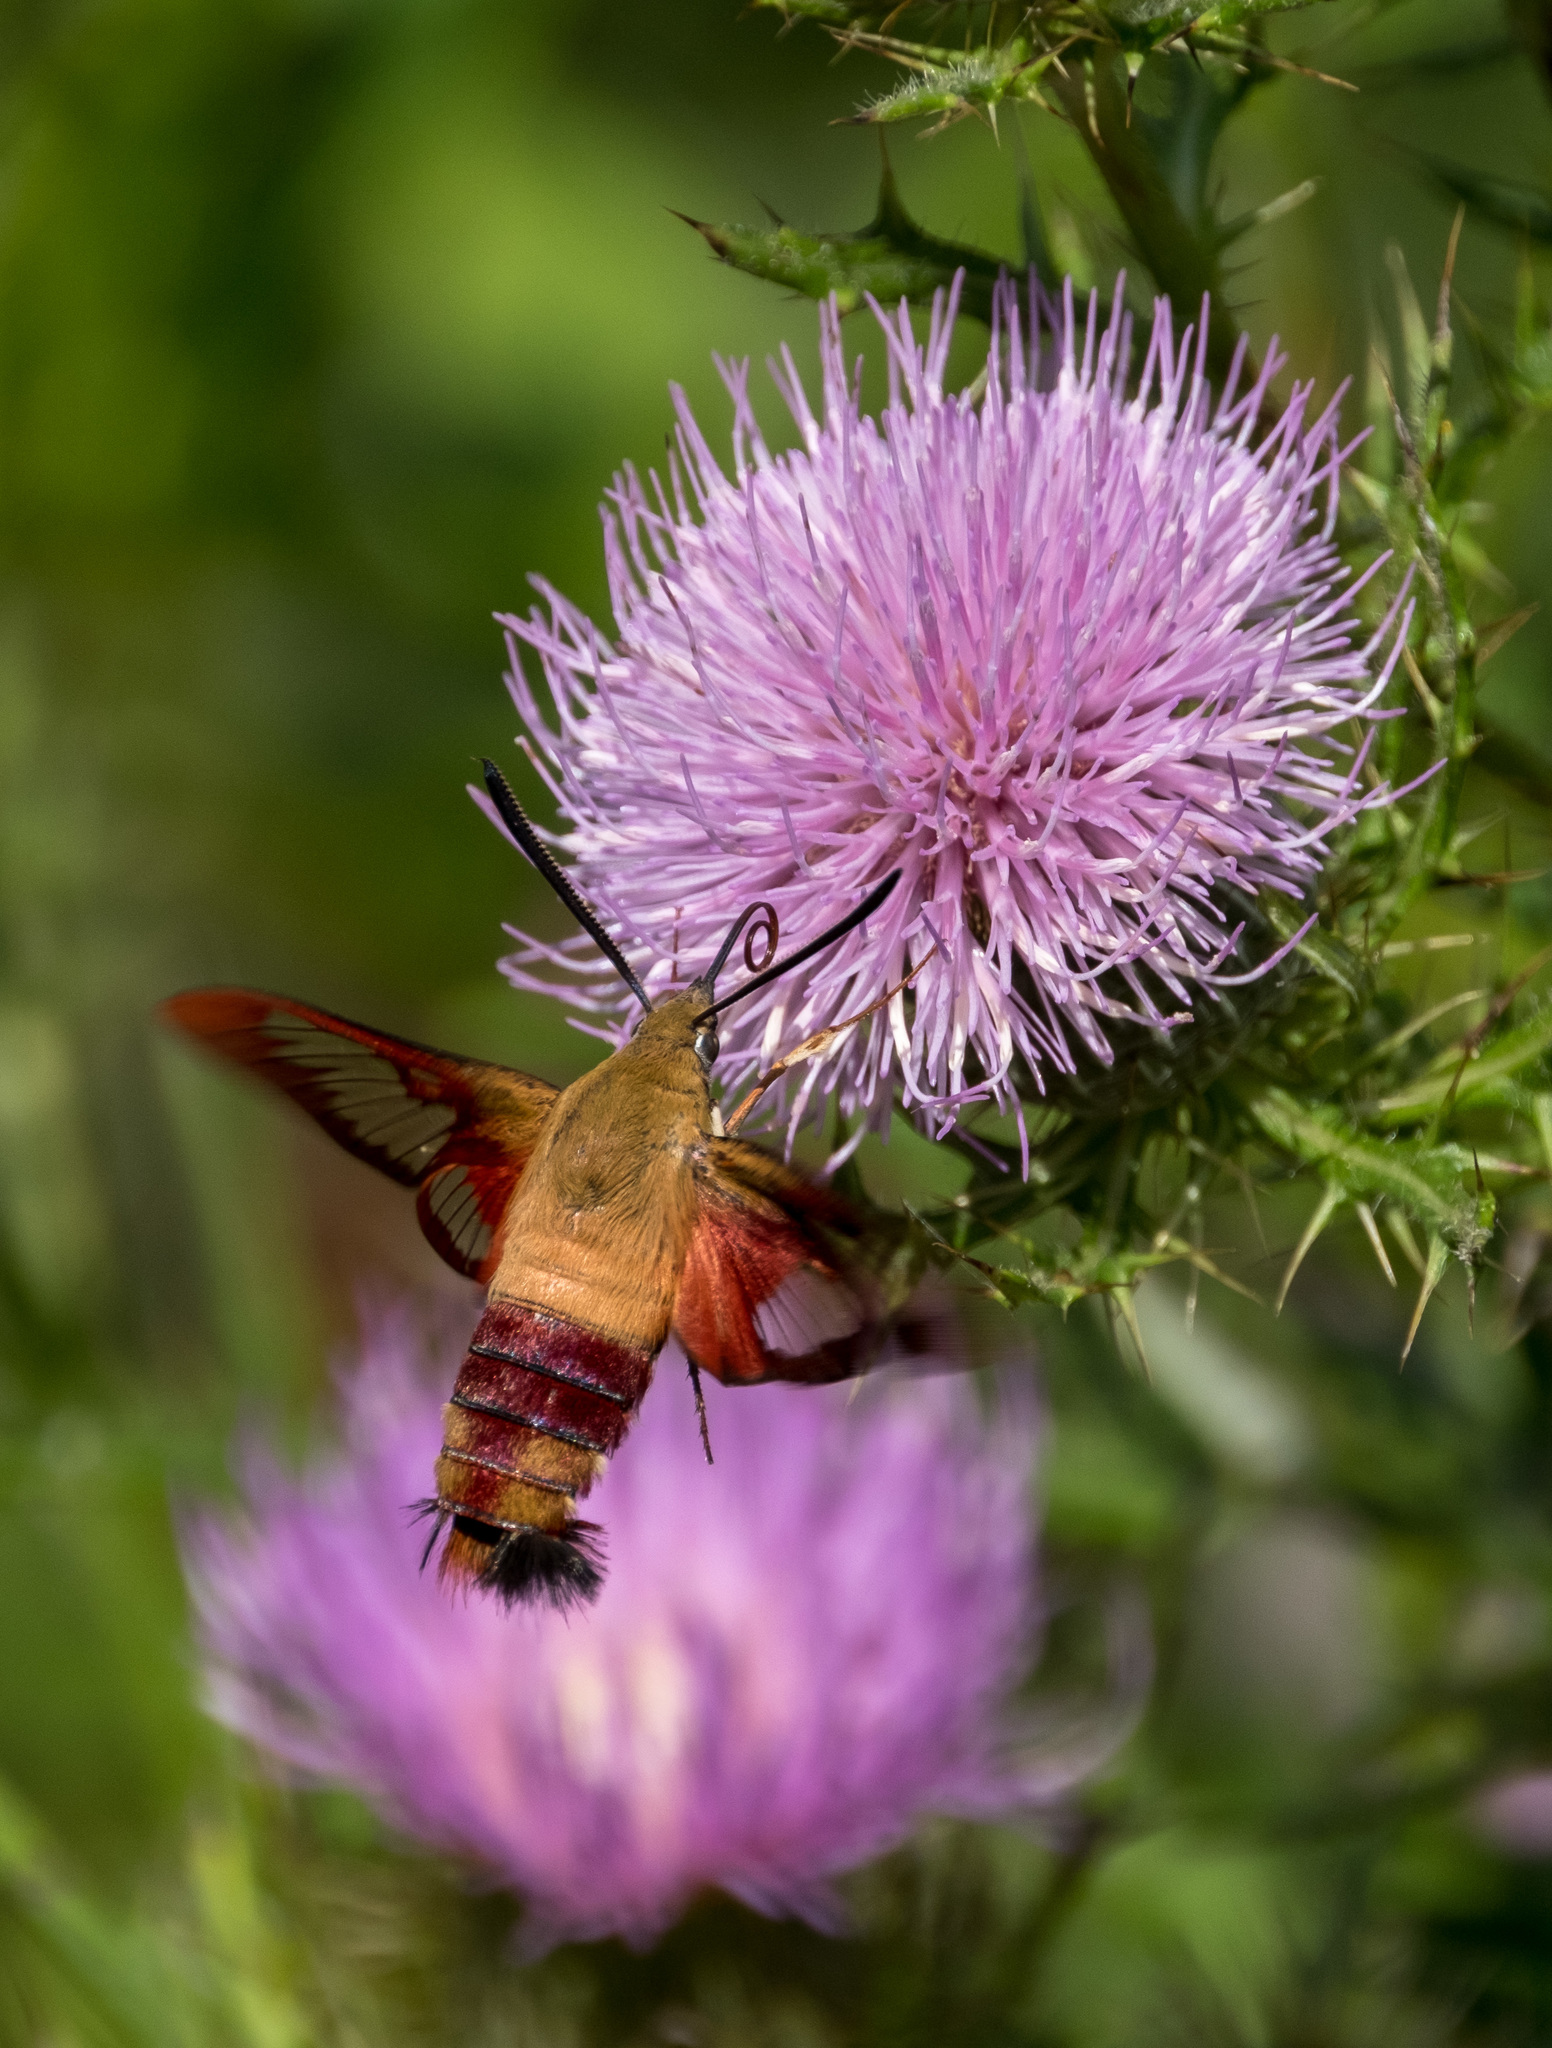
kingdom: Animalia
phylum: Arthropoda
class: Insecta
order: Lepidoptera
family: Sphingidae
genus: Hemaris
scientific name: Hemaris thysbe
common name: Common clear-wing
